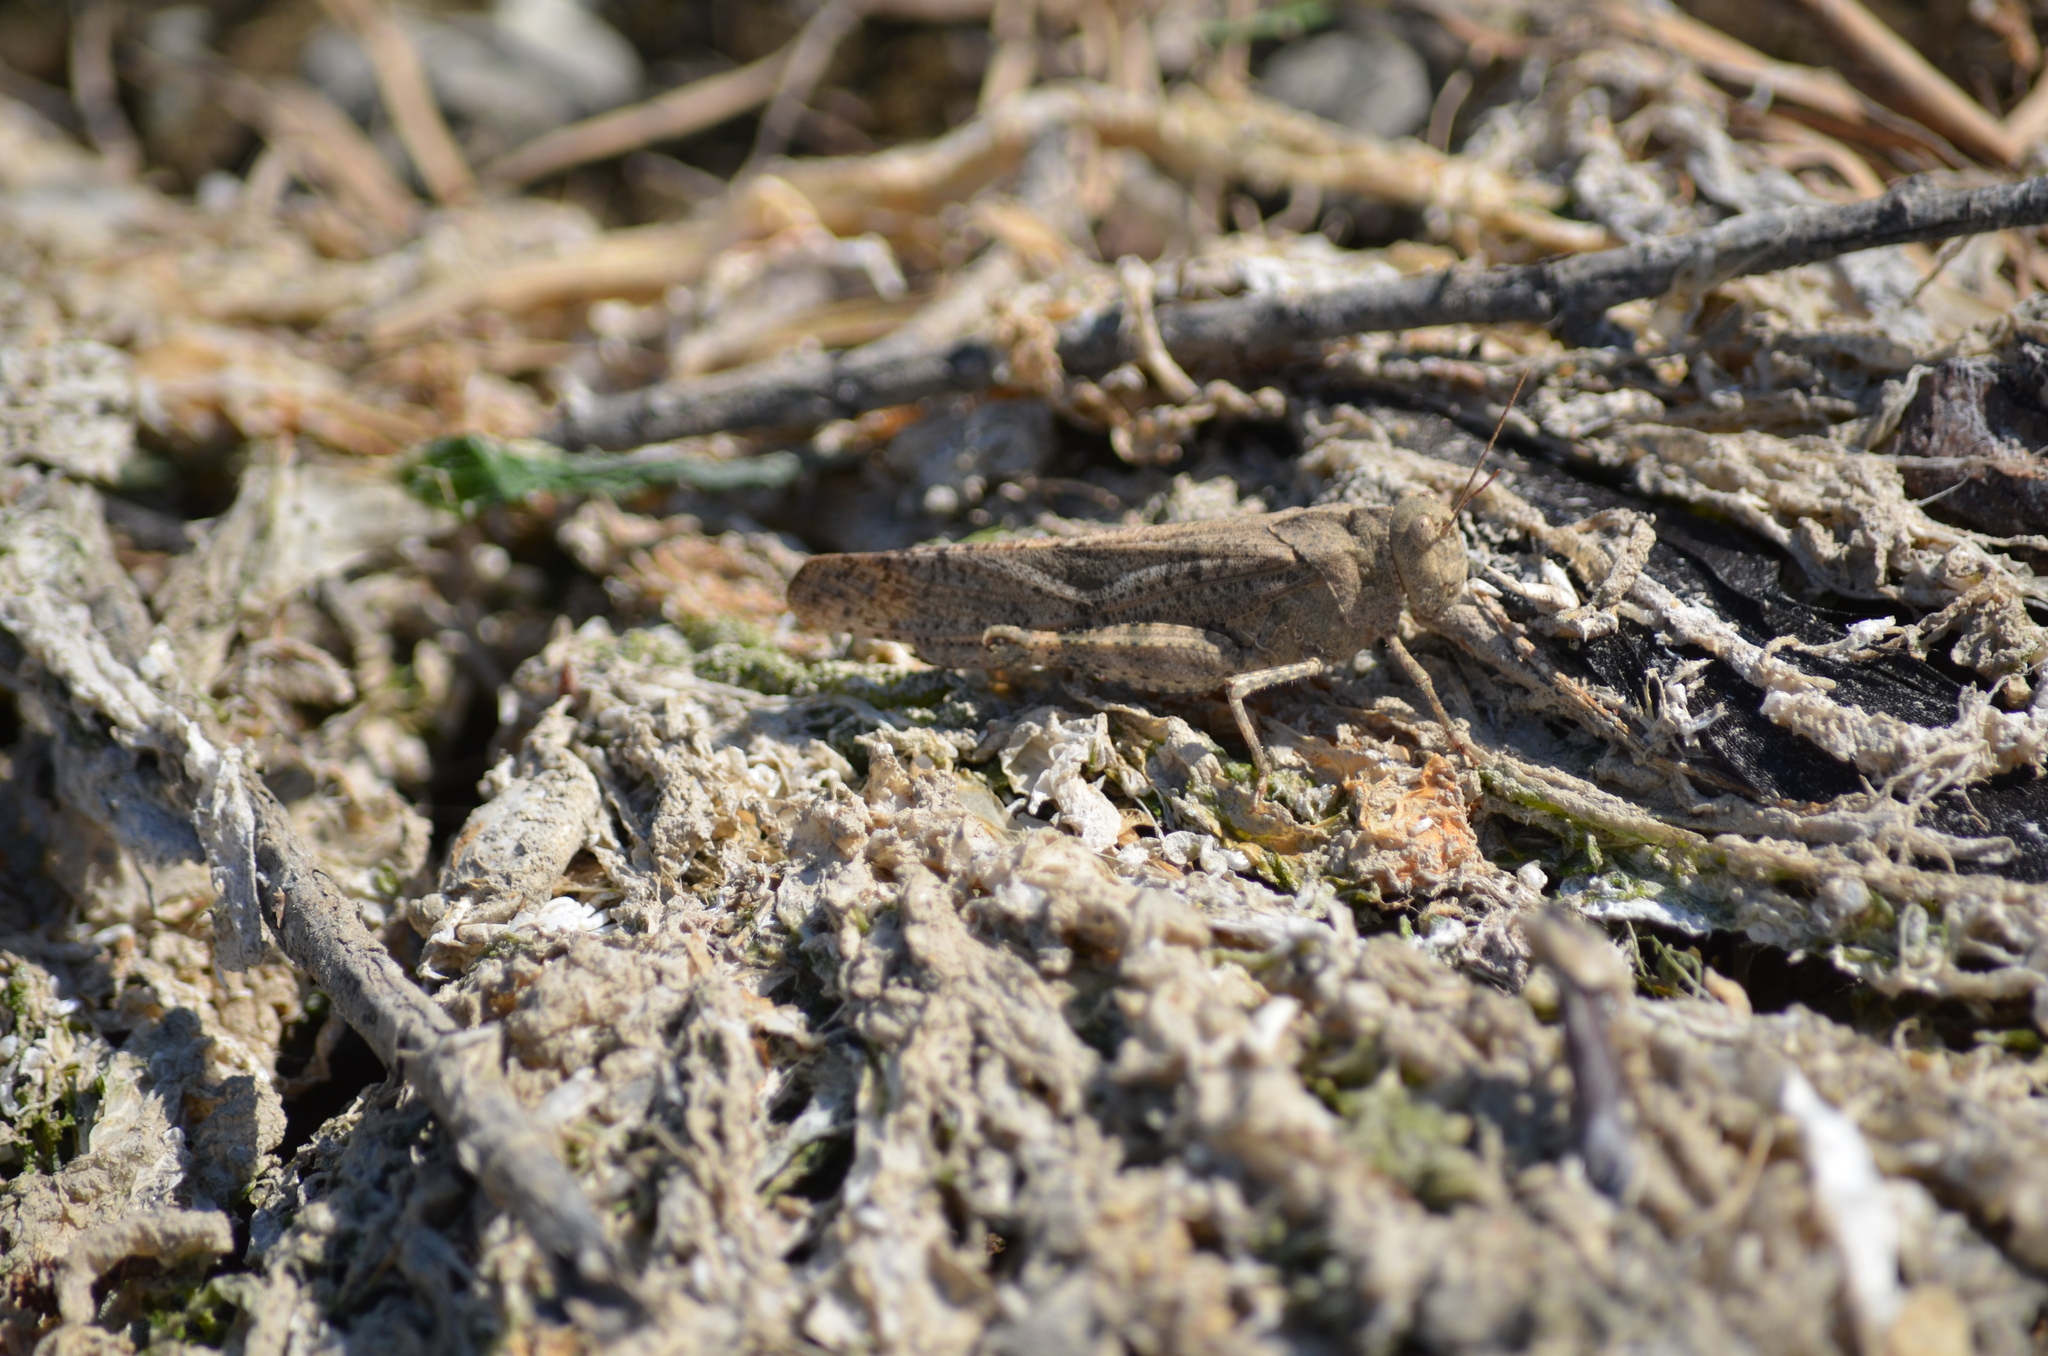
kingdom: Animalia
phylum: Arthropoda
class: Insecta
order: Orthoptera
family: Acrididae
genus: Dissosteira
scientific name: Dissosteira carolina
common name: Carolina grasshopper
